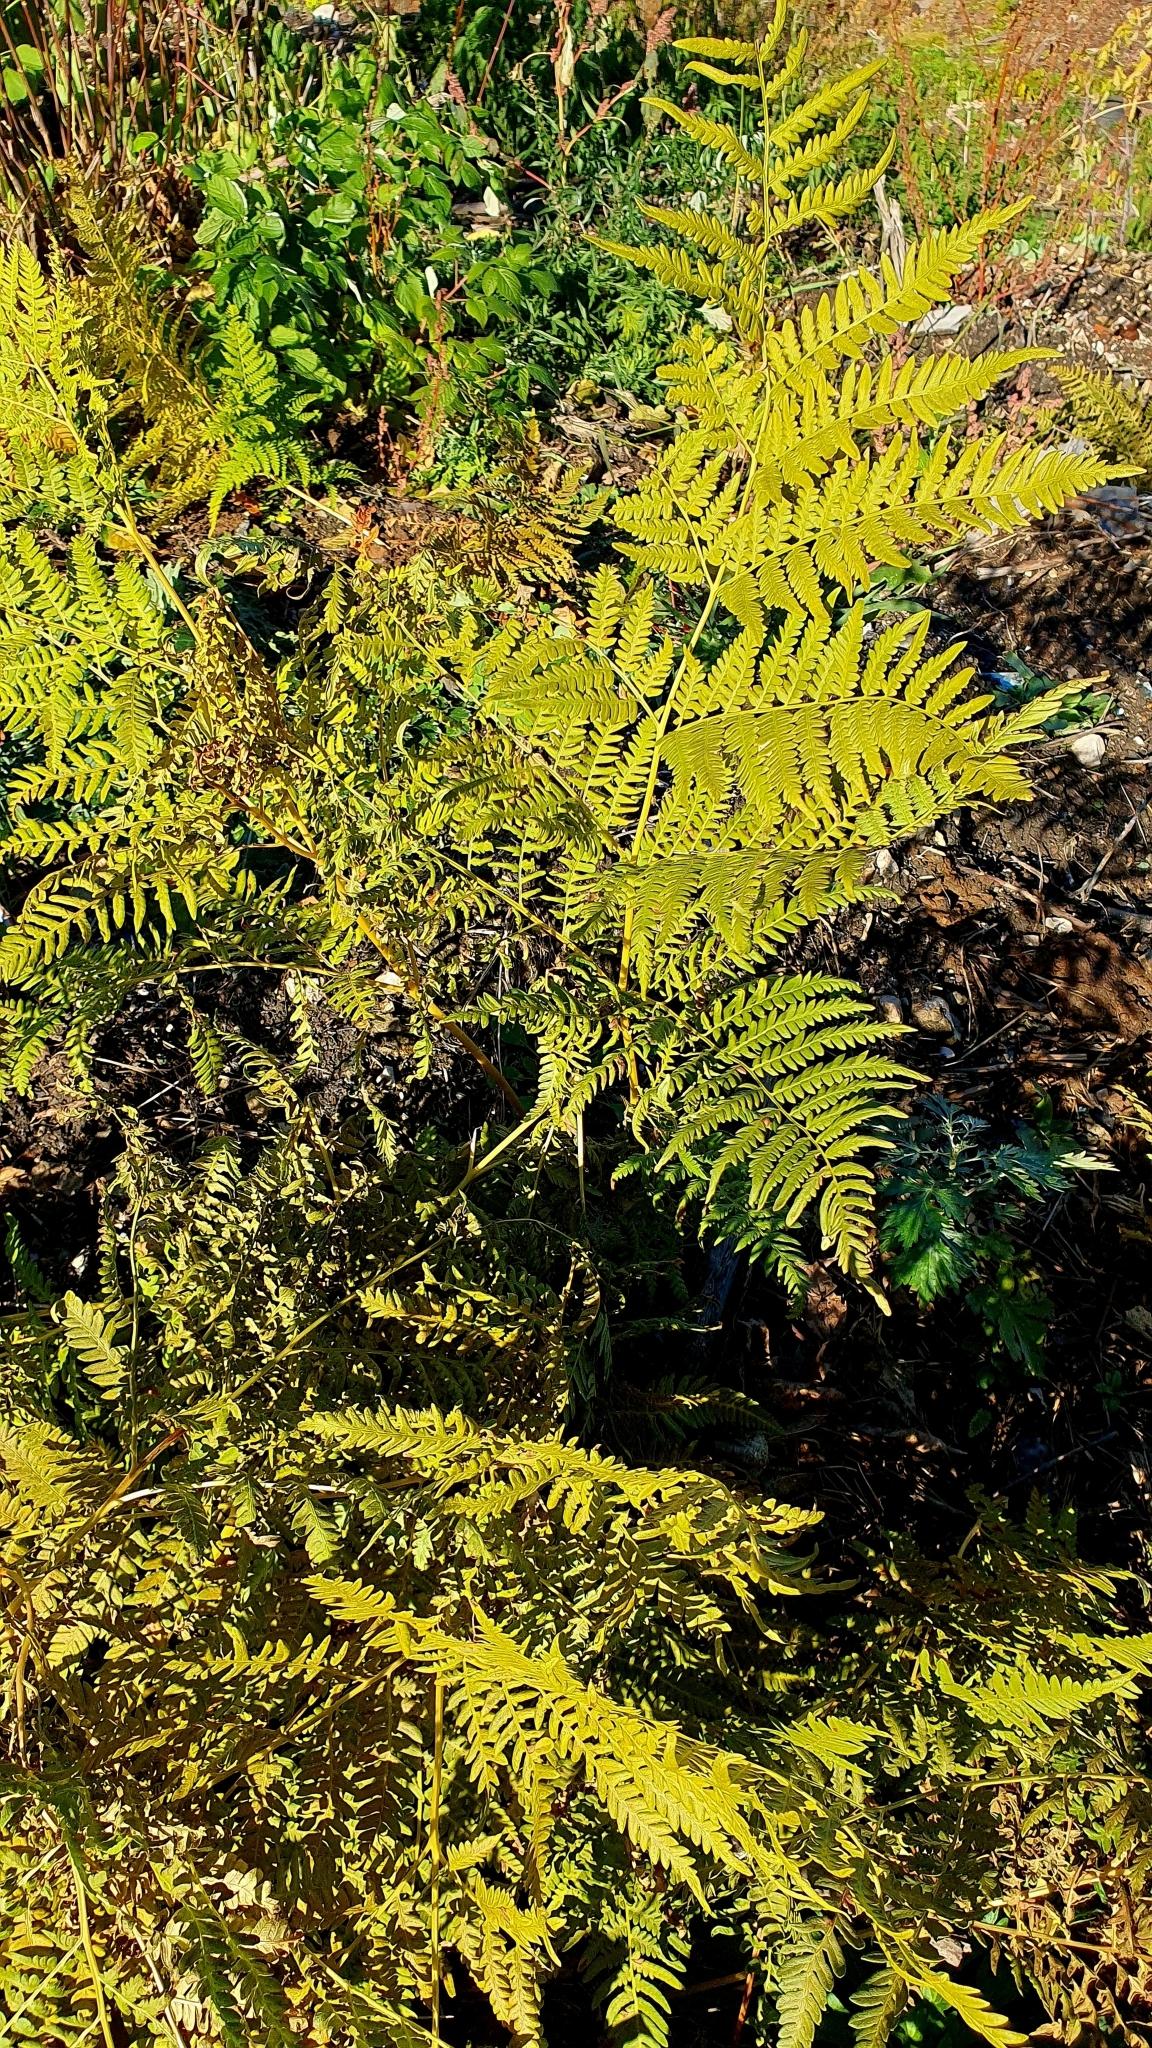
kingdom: Plantae
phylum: Tracheophyta
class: Polypodiopsida
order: Polypodiales
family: Dennstaedtiaceae
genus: Pteridium
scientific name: Pteridium aquilinum
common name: Bracken
